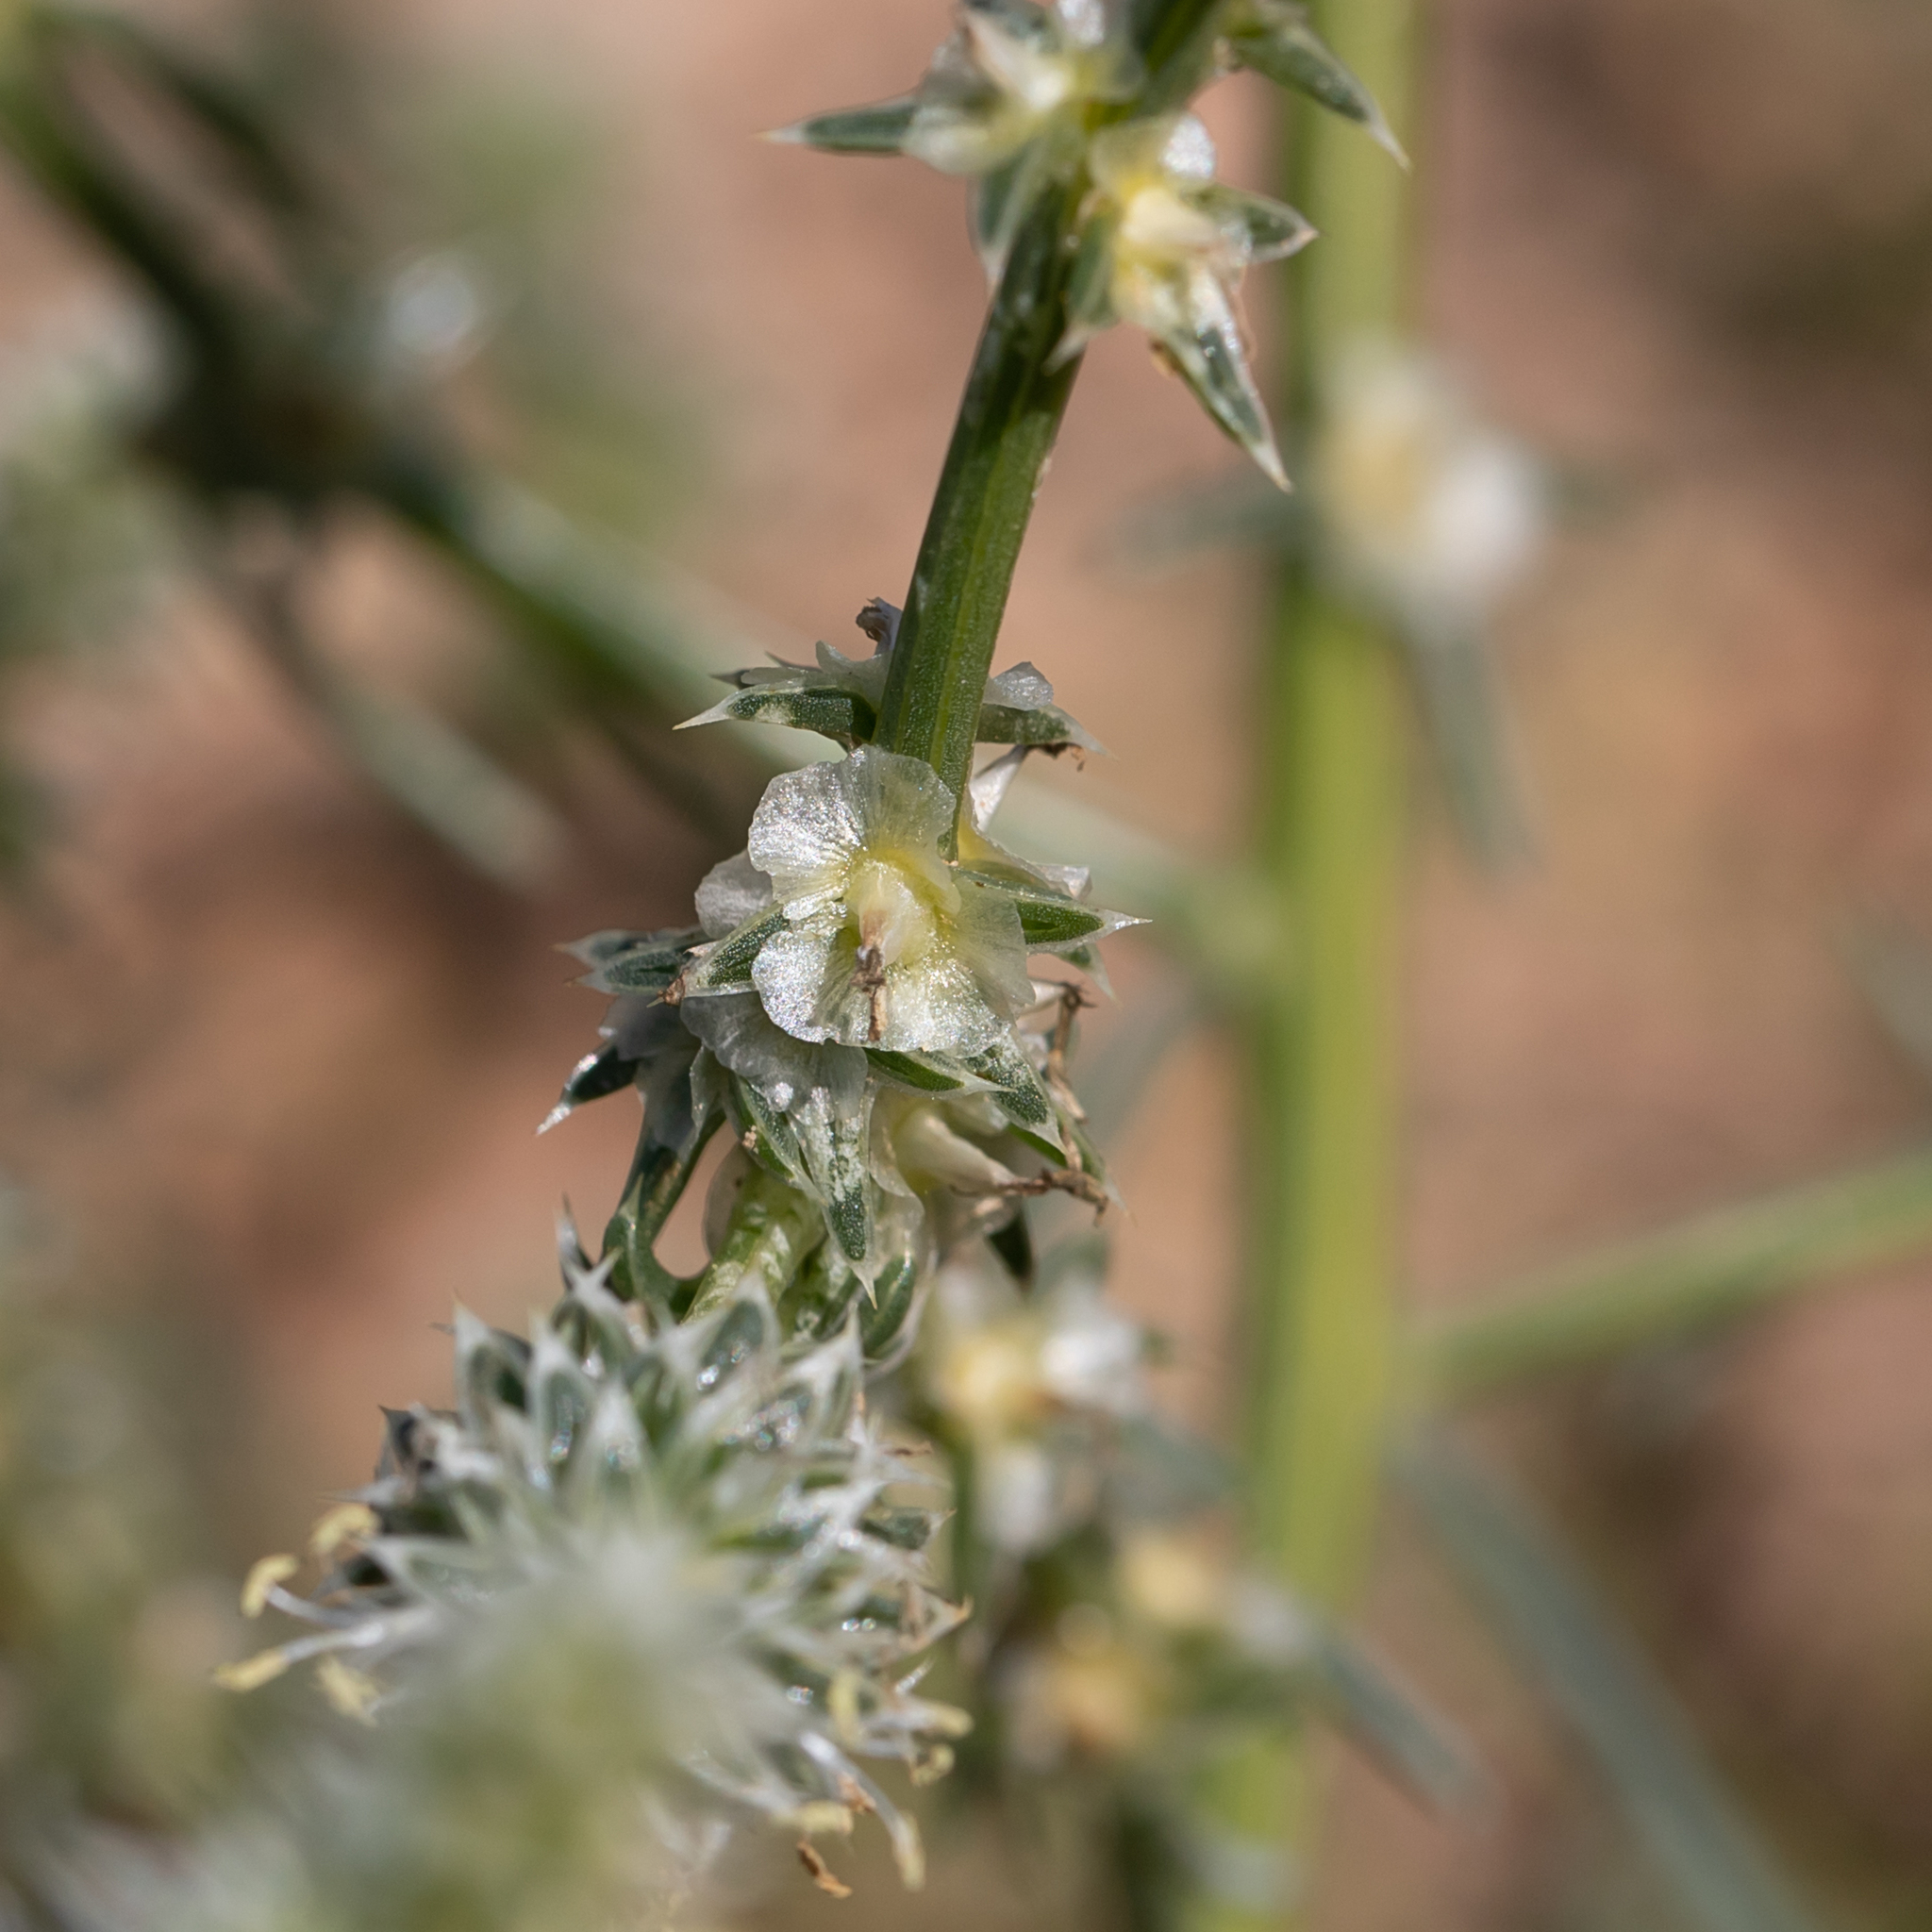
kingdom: Plantae
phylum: Tracheophyta
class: Magnoliopsida
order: Caryophyllales
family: Amaranthaceae
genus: Salsola
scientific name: Salsola australis
